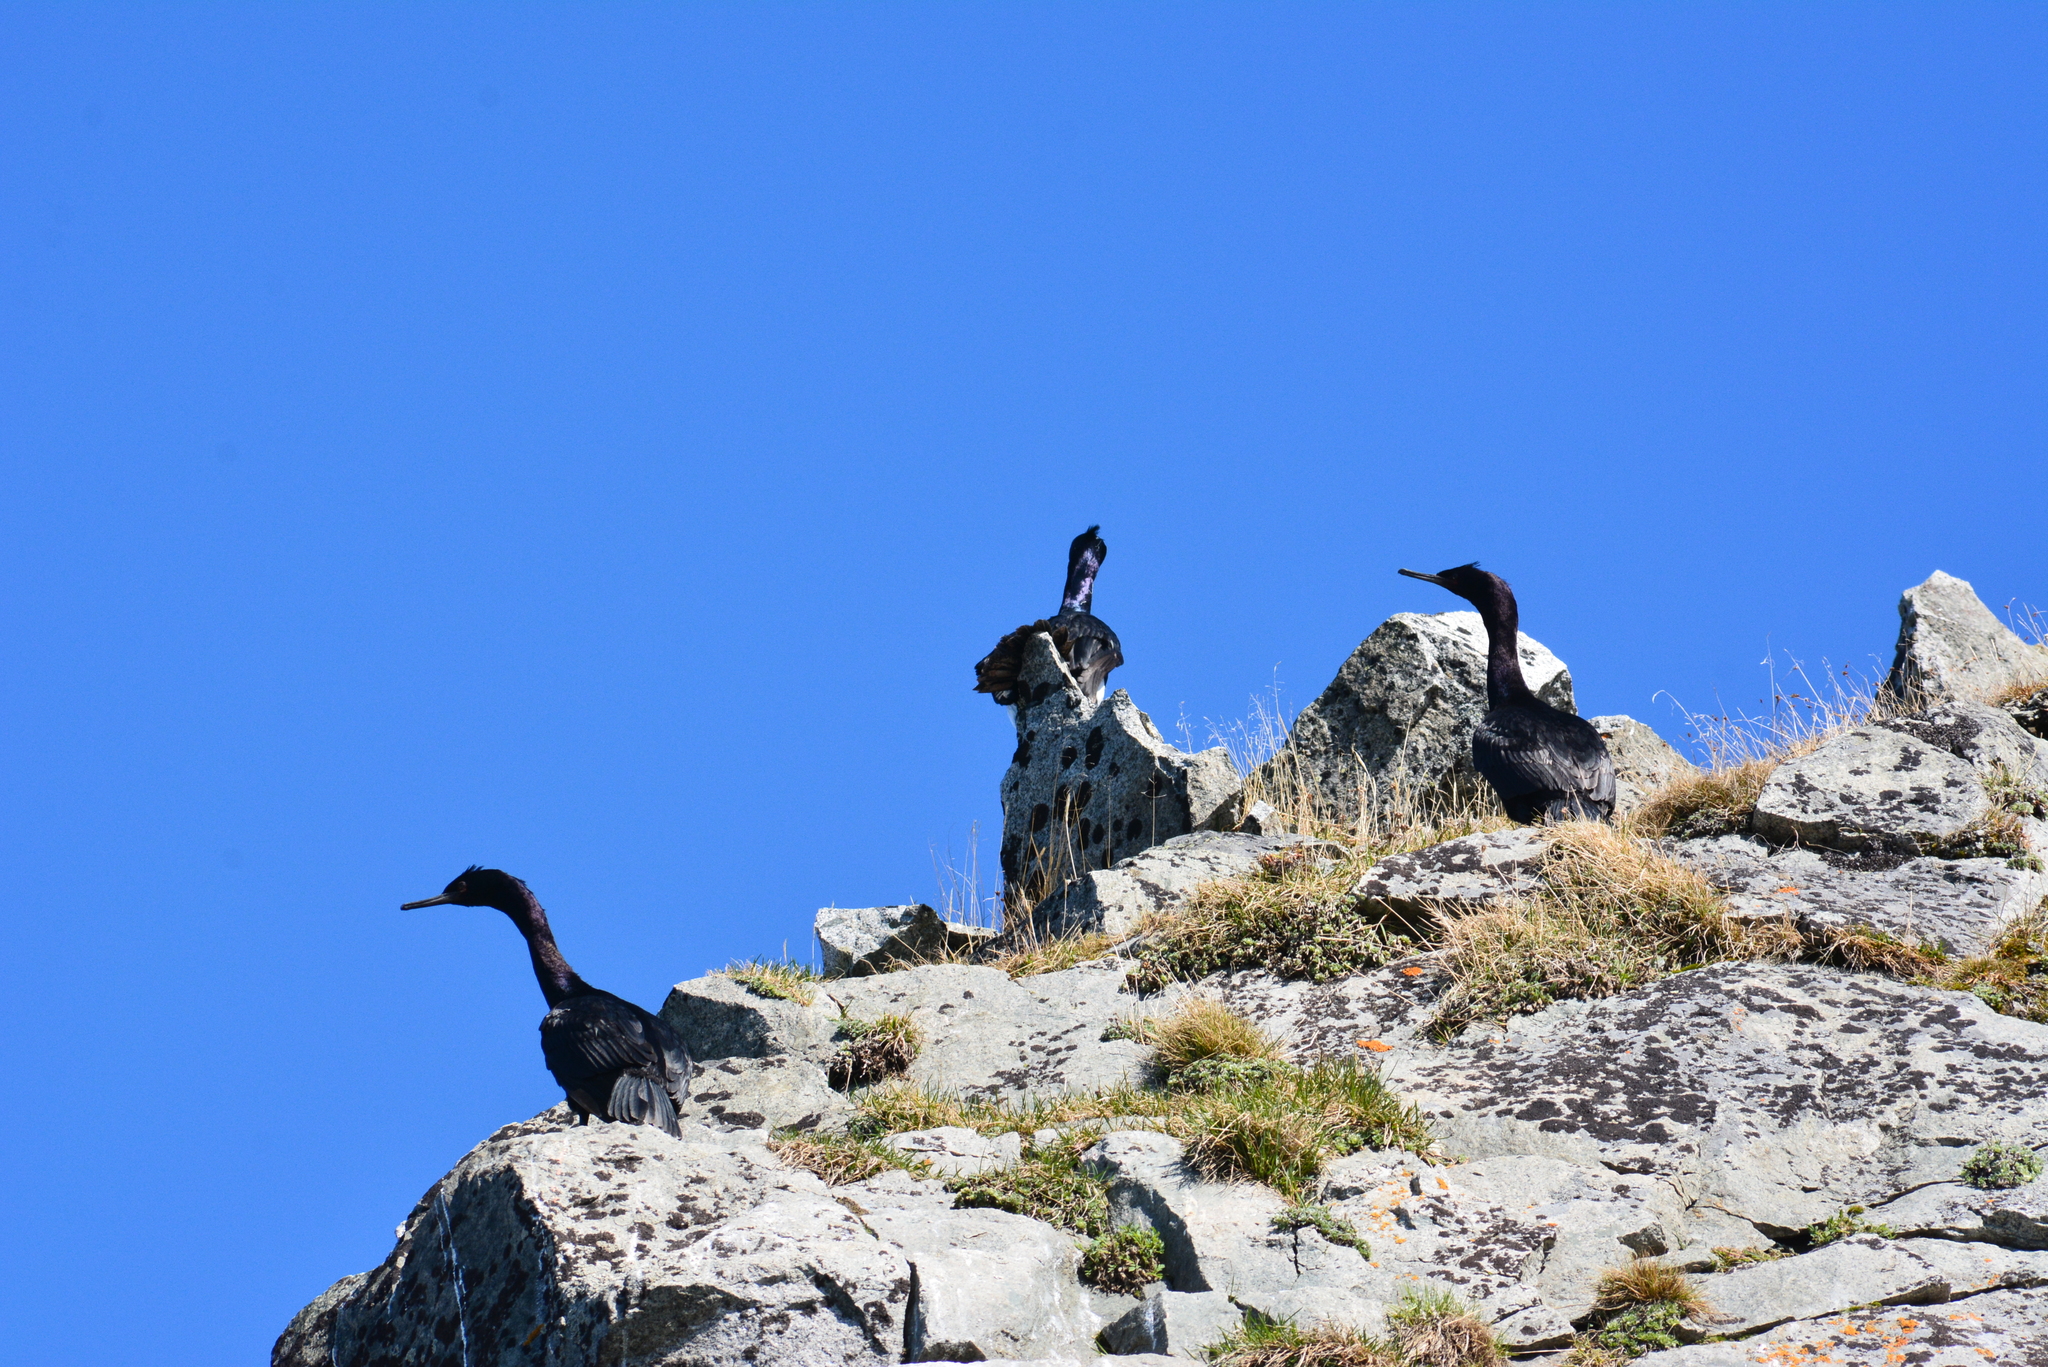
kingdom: Animalia
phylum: Chordata
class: Aves
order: Suliformes
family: Phalacrocoracidae
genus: Phalacrocorax
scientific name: Phalacrocorax pelagicus
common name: Pelagic cormorant
